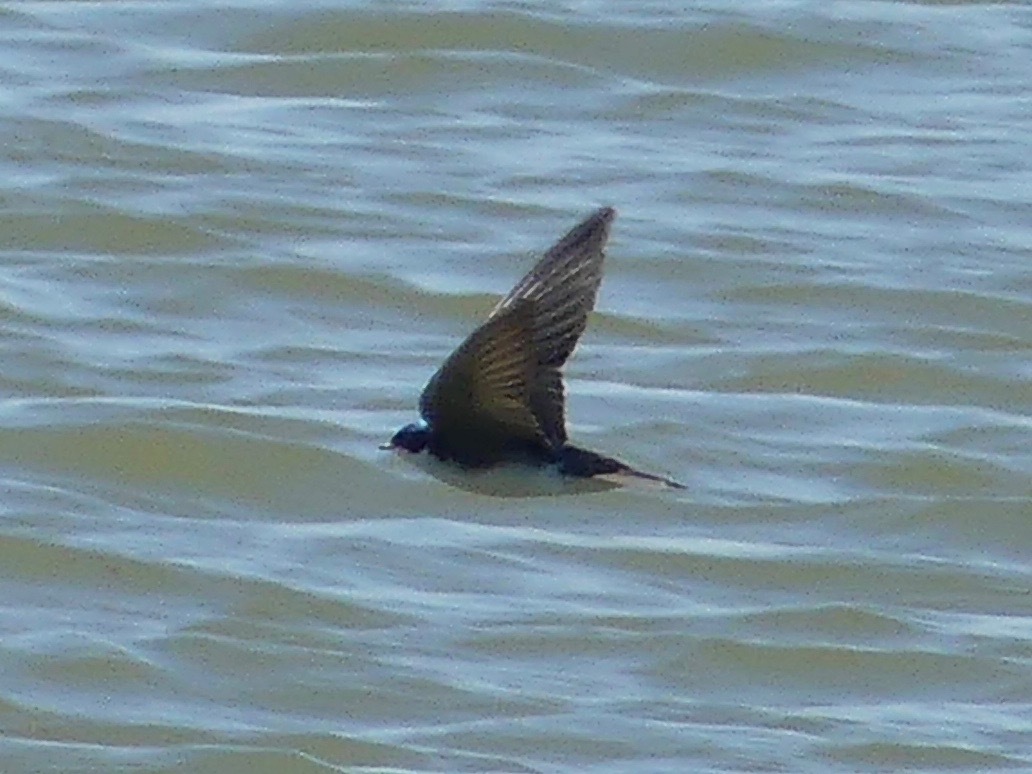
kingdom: Animalia
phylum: Chordata
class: Aves
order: Passeriformes
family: Hirundinidae
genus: Tachycineta
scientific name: Tachycineta bicolor
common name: Tree swallow
